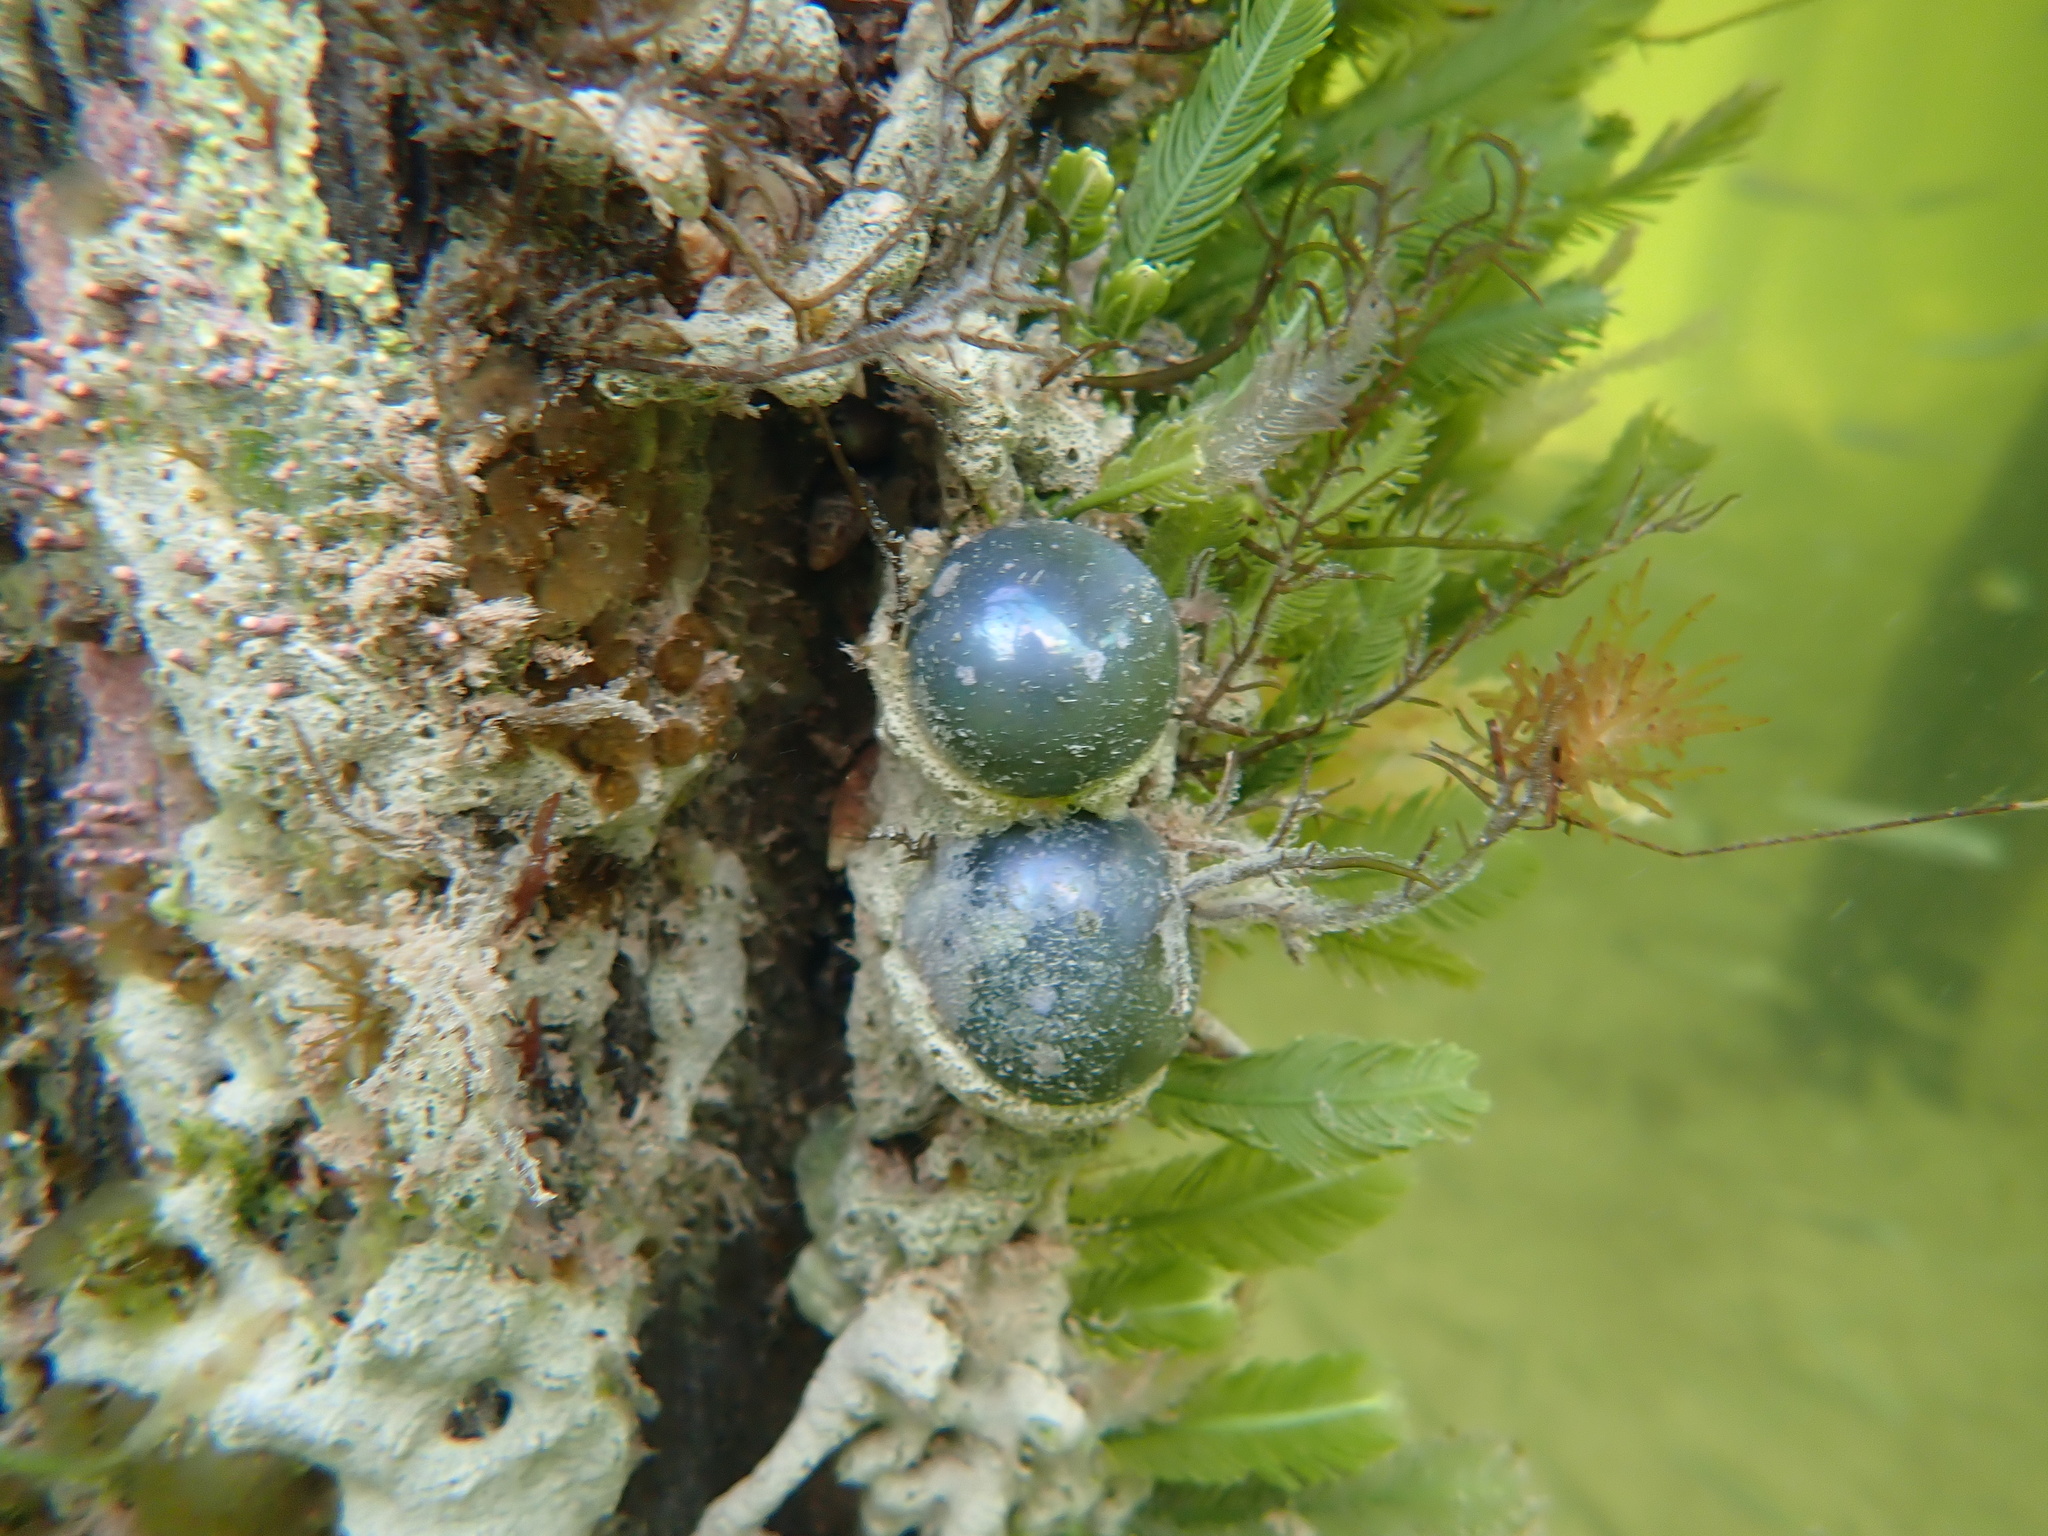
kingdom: Plantae
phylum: Chlorophyta
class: Ulvophyceae
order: Siphonocladales
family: Valoniaceae
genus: Valonia
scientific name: Valonia ventricosa
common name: Sea pearl
